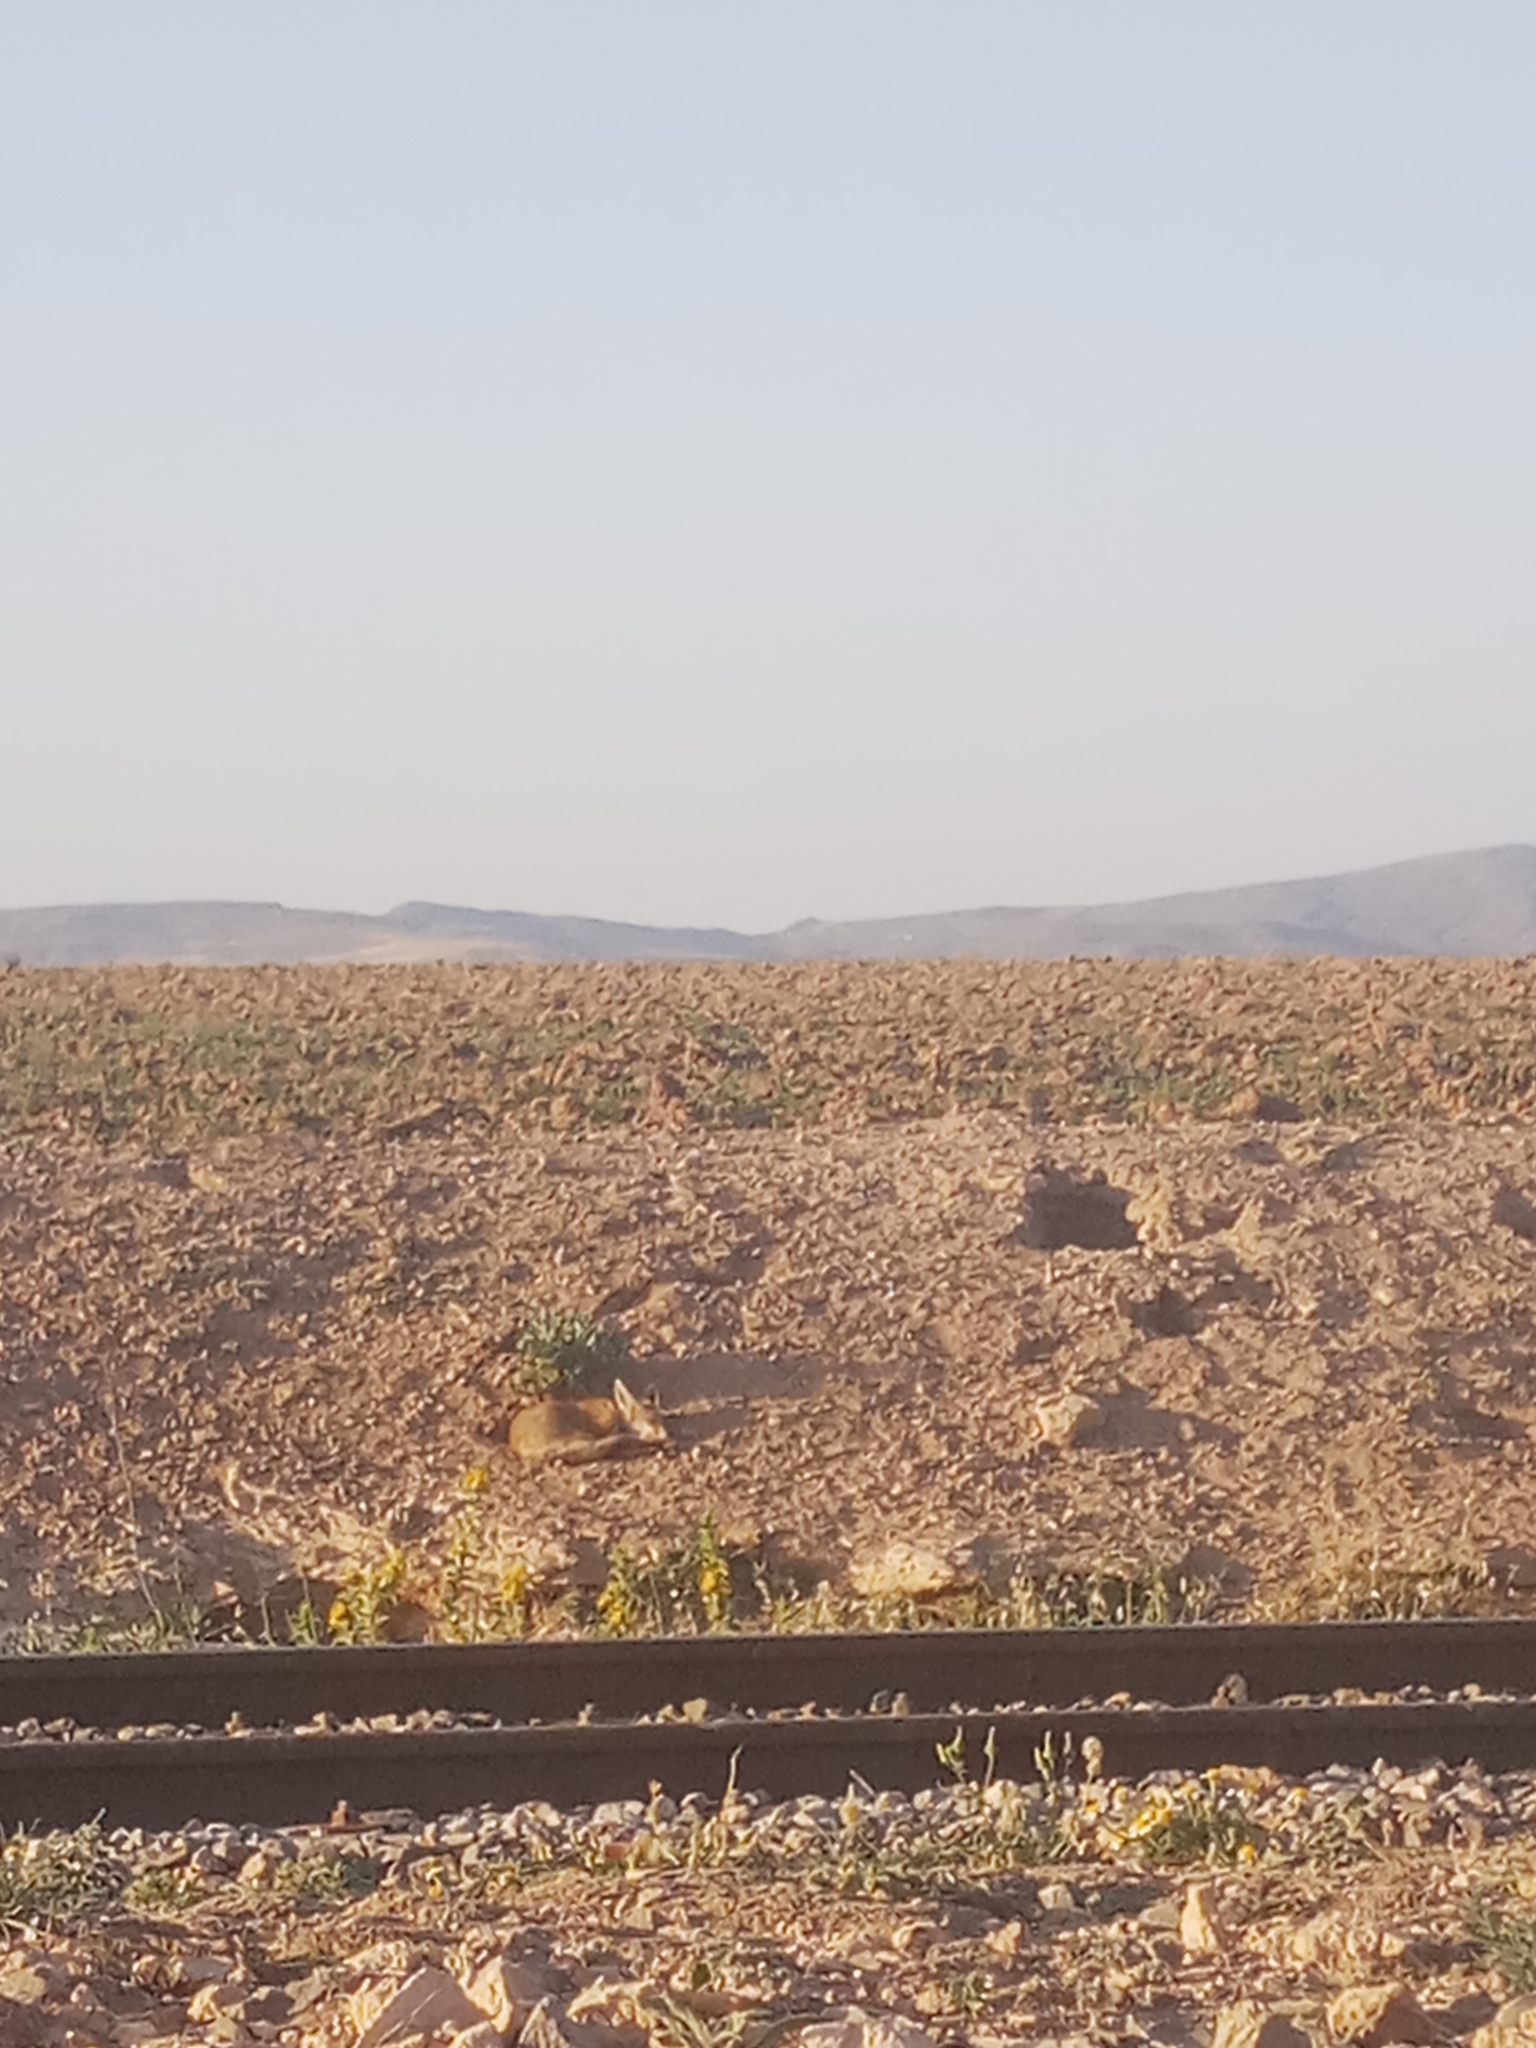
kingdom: Animalia
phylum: Chordata
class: Mammalia
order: Carnivora
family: Canidae
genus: Vulpes
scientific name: Vulpes vulpes
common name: Red fox
